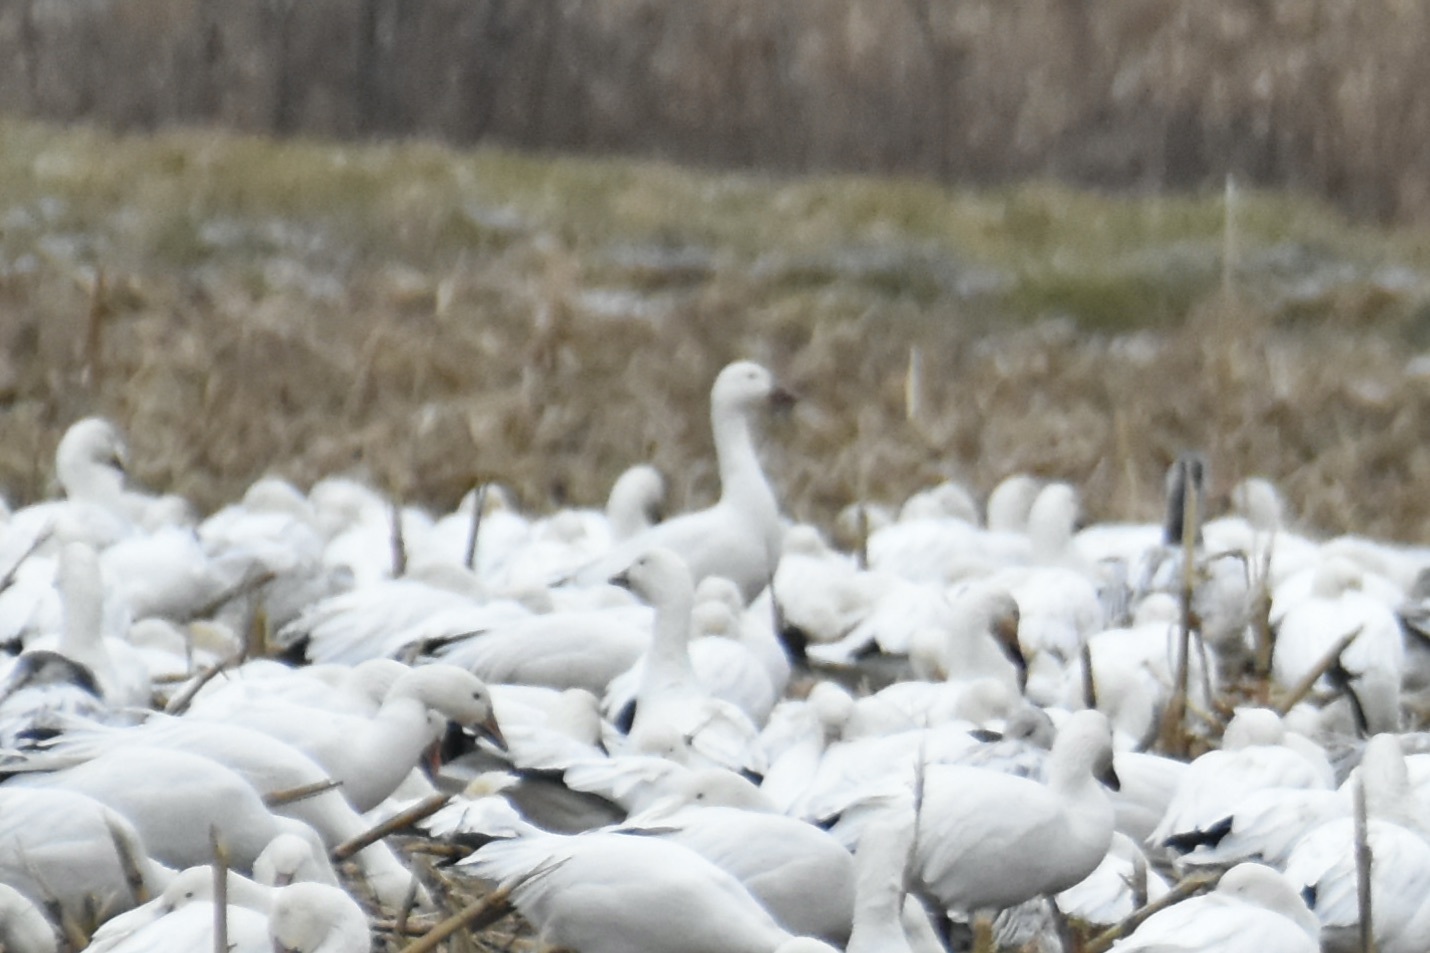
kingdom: Animalia
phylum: Chordata
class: Aves
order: Anseriformes
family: Anatidae
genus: Anser
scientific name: Anser caerulescens
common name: Snow goose
